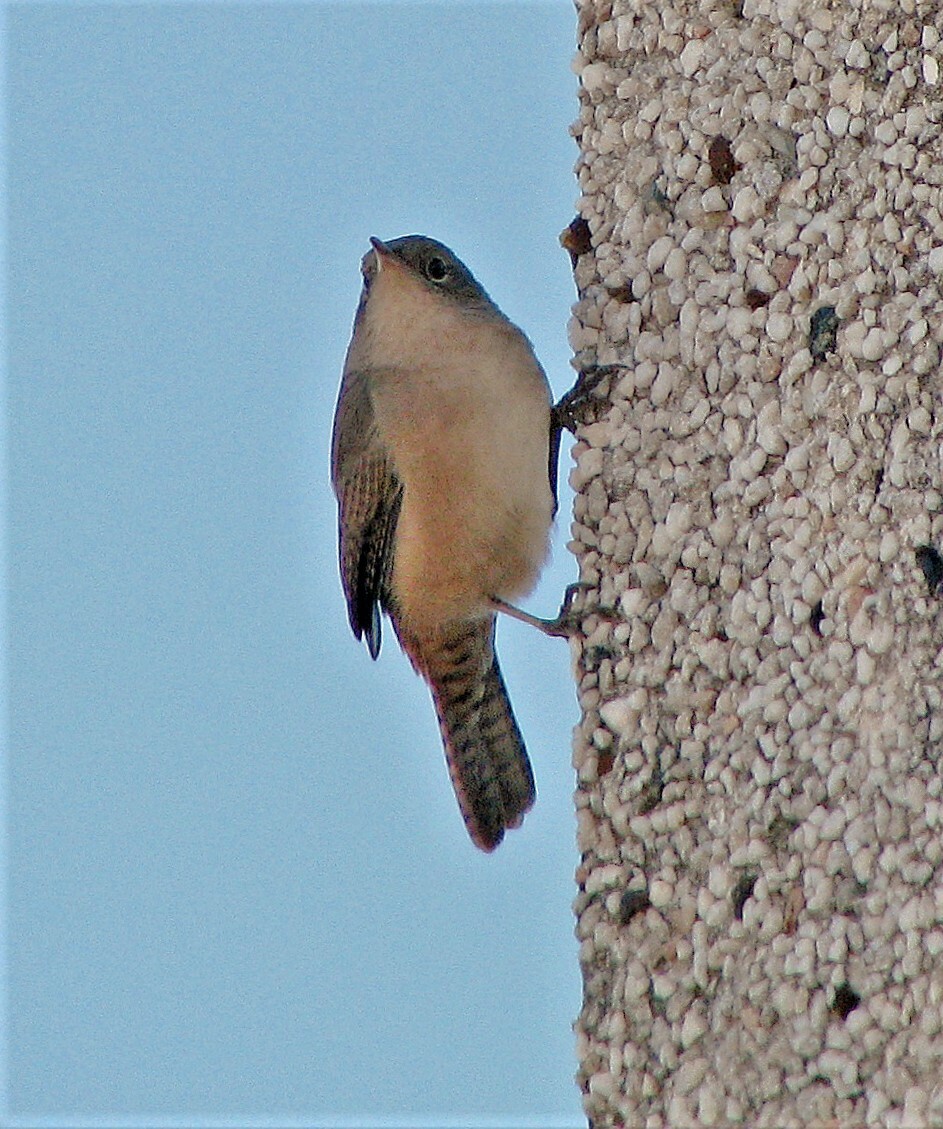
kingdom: Animalia
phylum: Chordata
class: Aves
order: Passeriformes
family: Troglodytidae
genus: Troglodytes
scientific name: Troglodytes aedon
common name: House wren
